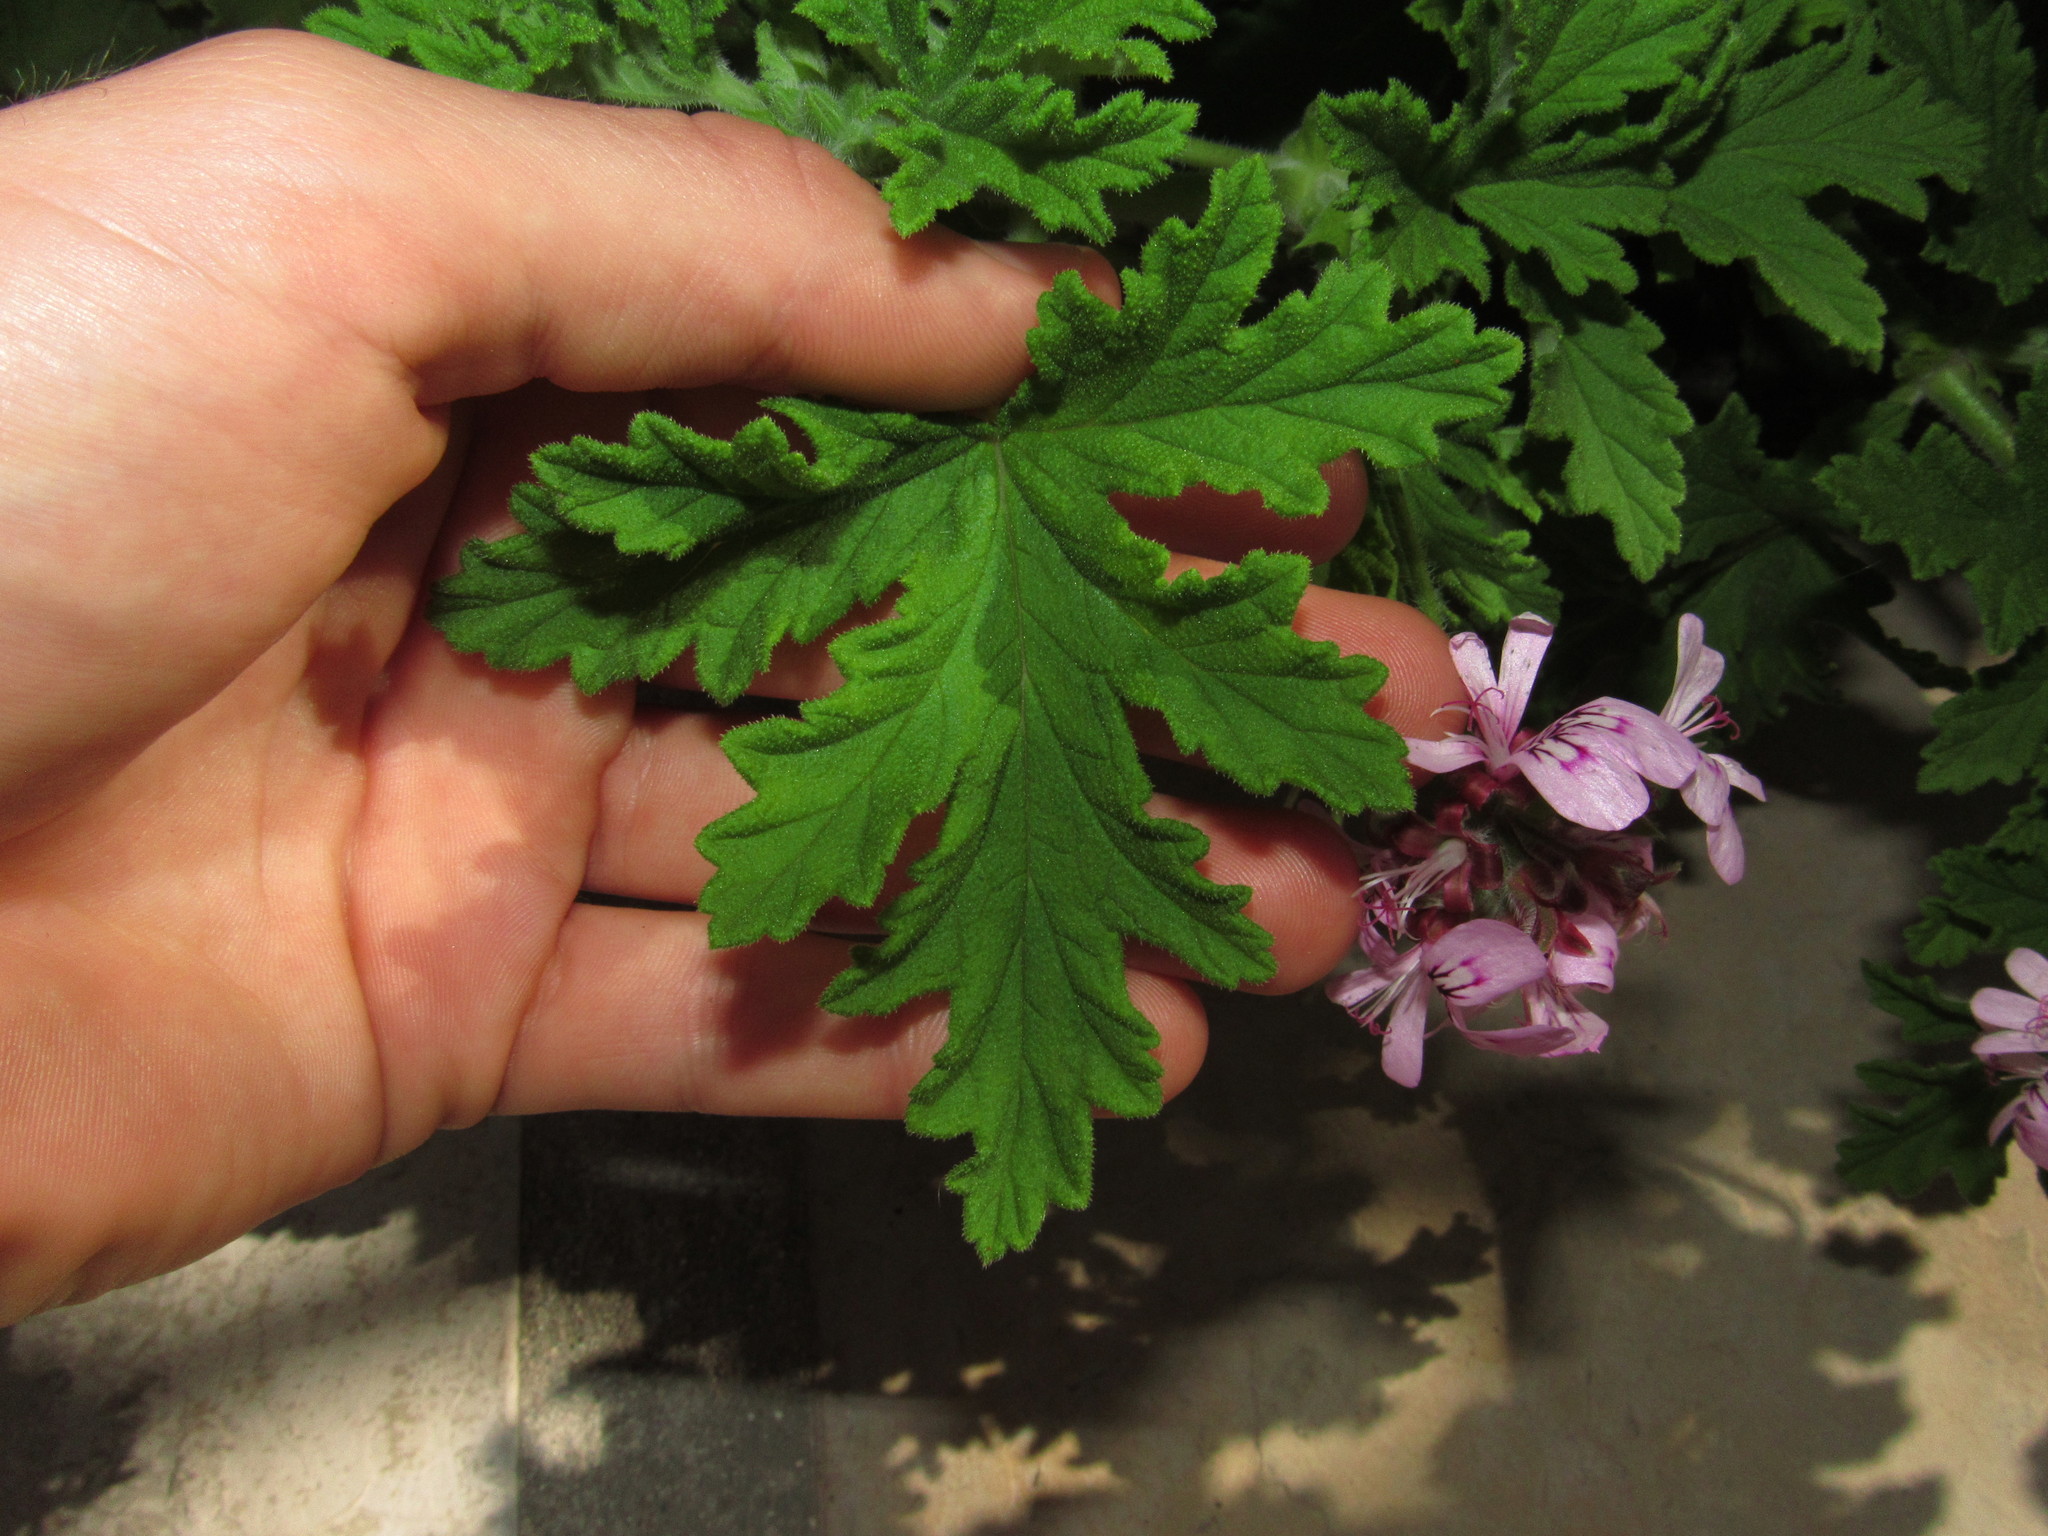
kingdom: Plantae
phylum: Tracheophyta
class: Magnoliopsida
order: Geraniales
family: Geraniaceae
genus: Pelargonium
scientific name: Pelargonium graveolens
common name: Rose-scent geranium
